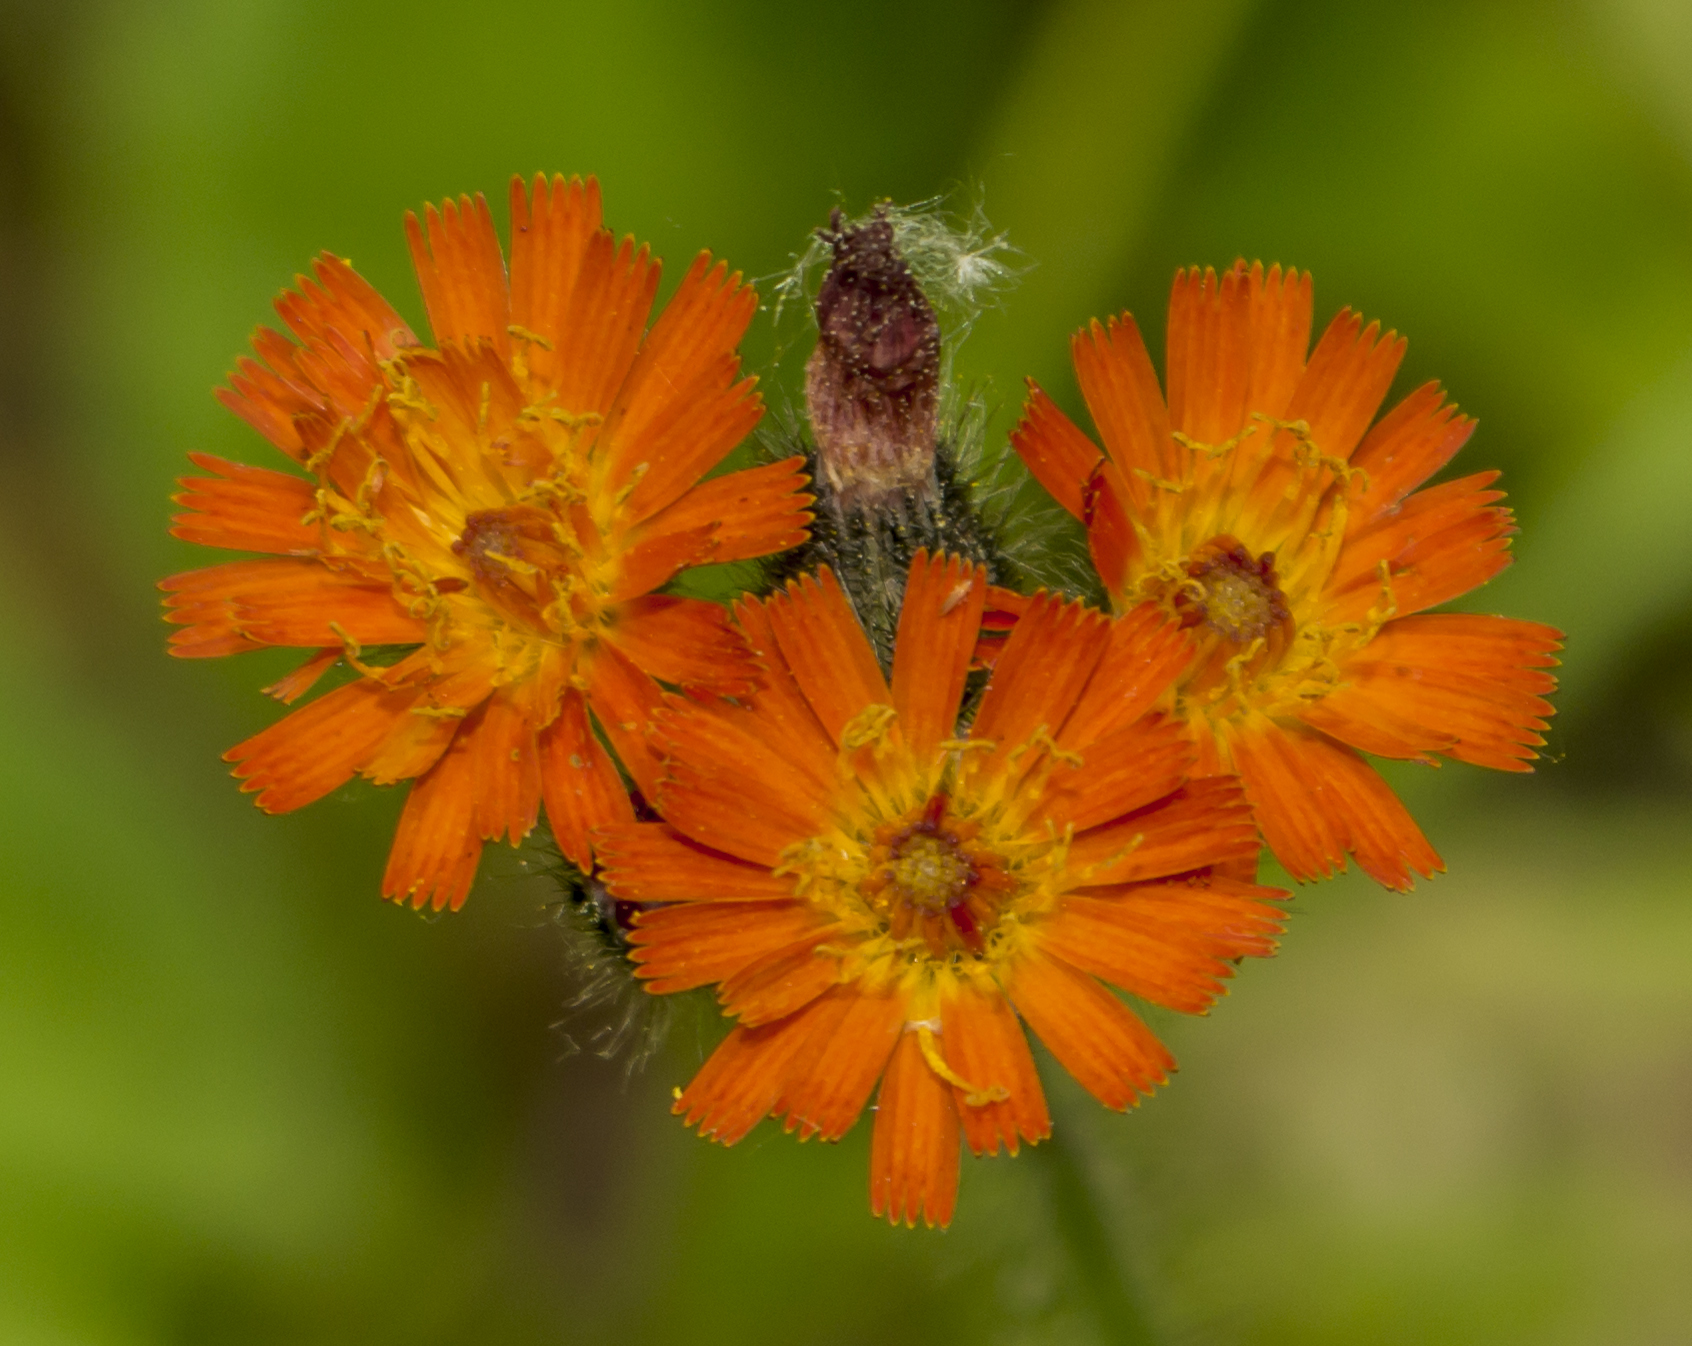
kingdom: Plantae
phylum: Tracheophyta
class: Magnoliopsida
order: Asterales
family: Asteraceae
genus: Pilosella
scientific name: Pilosella aurantiaca
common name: Fox-and-cubs
